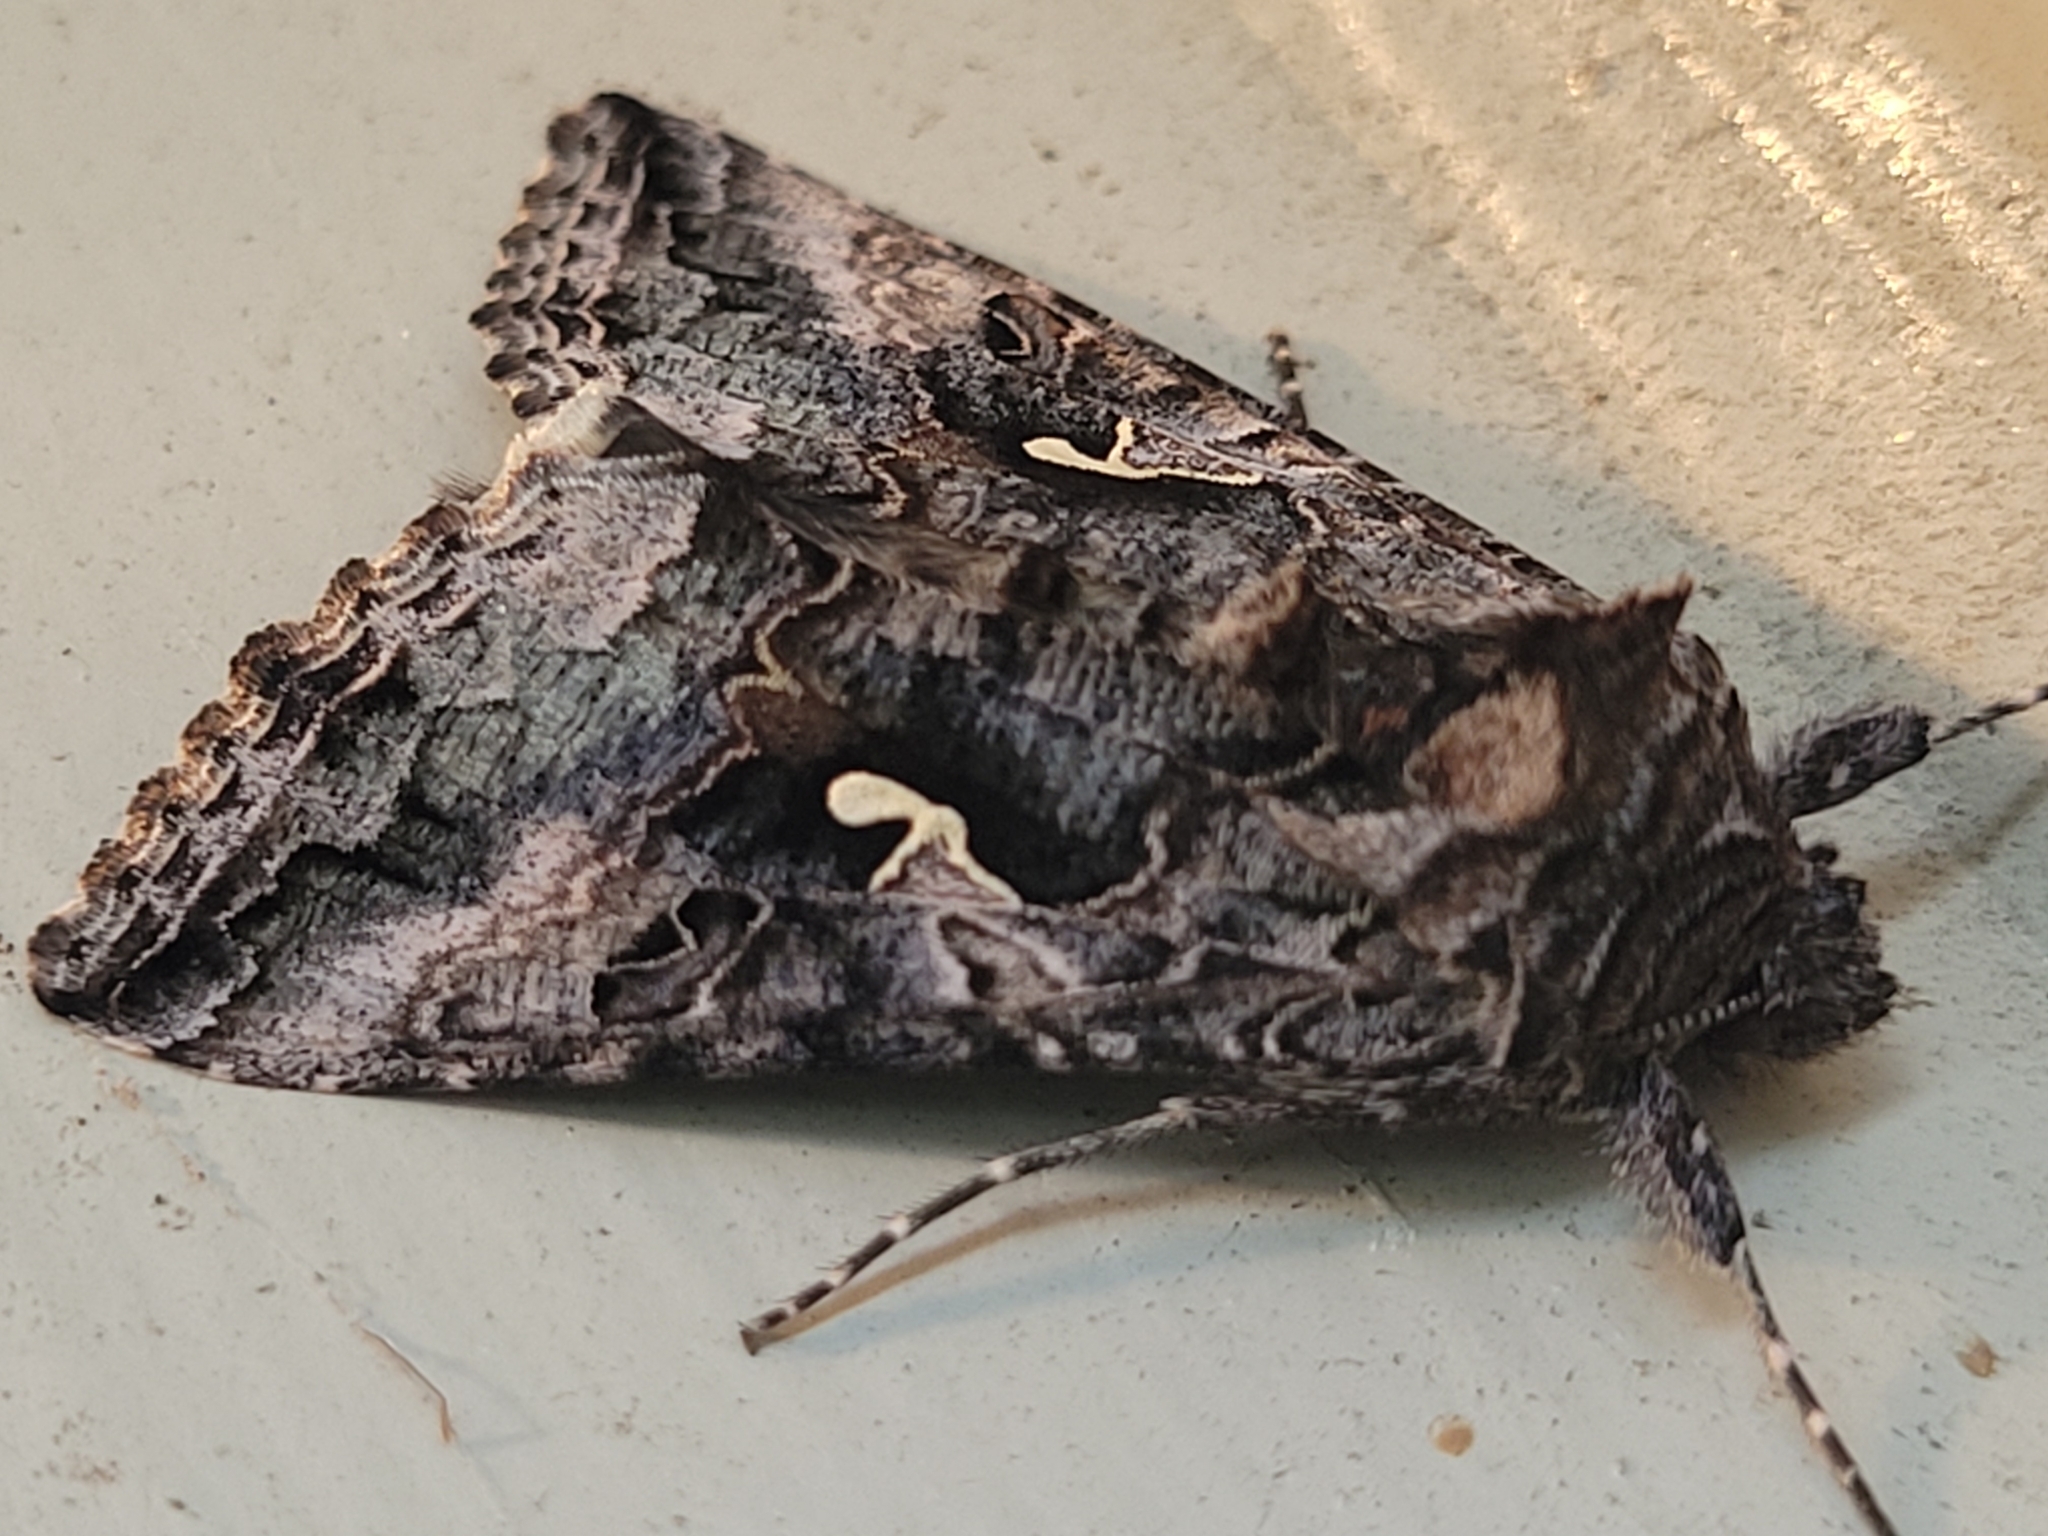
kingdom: Animalia
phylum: Arthropoda
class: Insecta
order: Lepidoptera
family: Noctuidae
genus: Autographa
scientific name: Autographa californica
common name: Alfalfa looper
